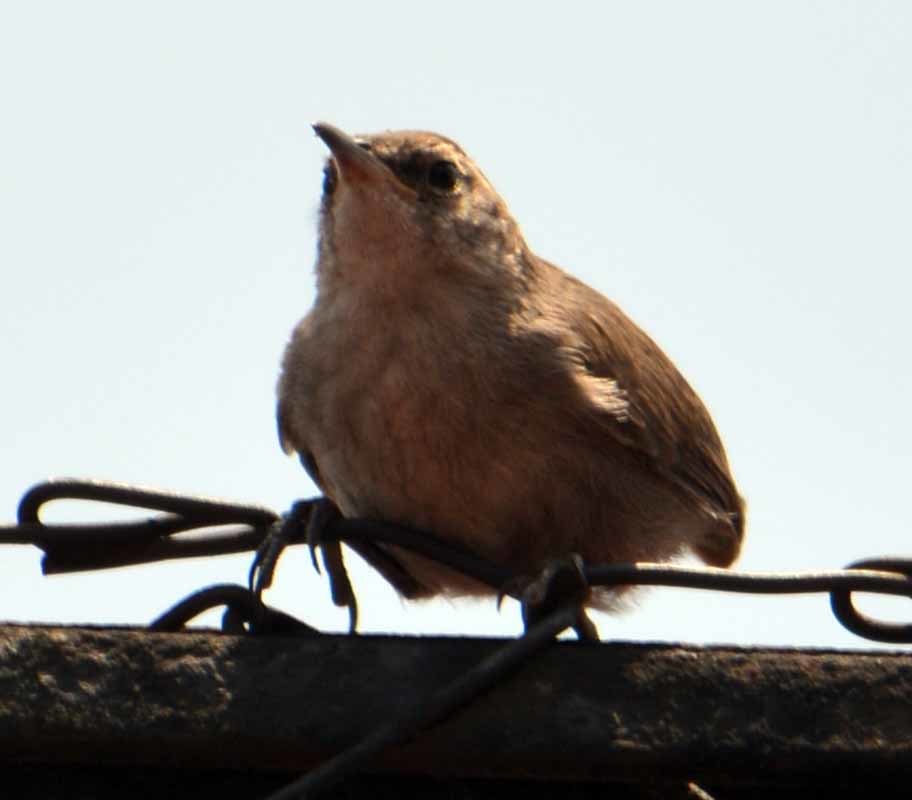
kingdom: Animalia
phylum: Chordata
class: Aves
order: Passeriformes
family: Troglodytidae
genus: Thryomanes
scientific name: Thryomanes bewickii
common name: Bewick's wren
